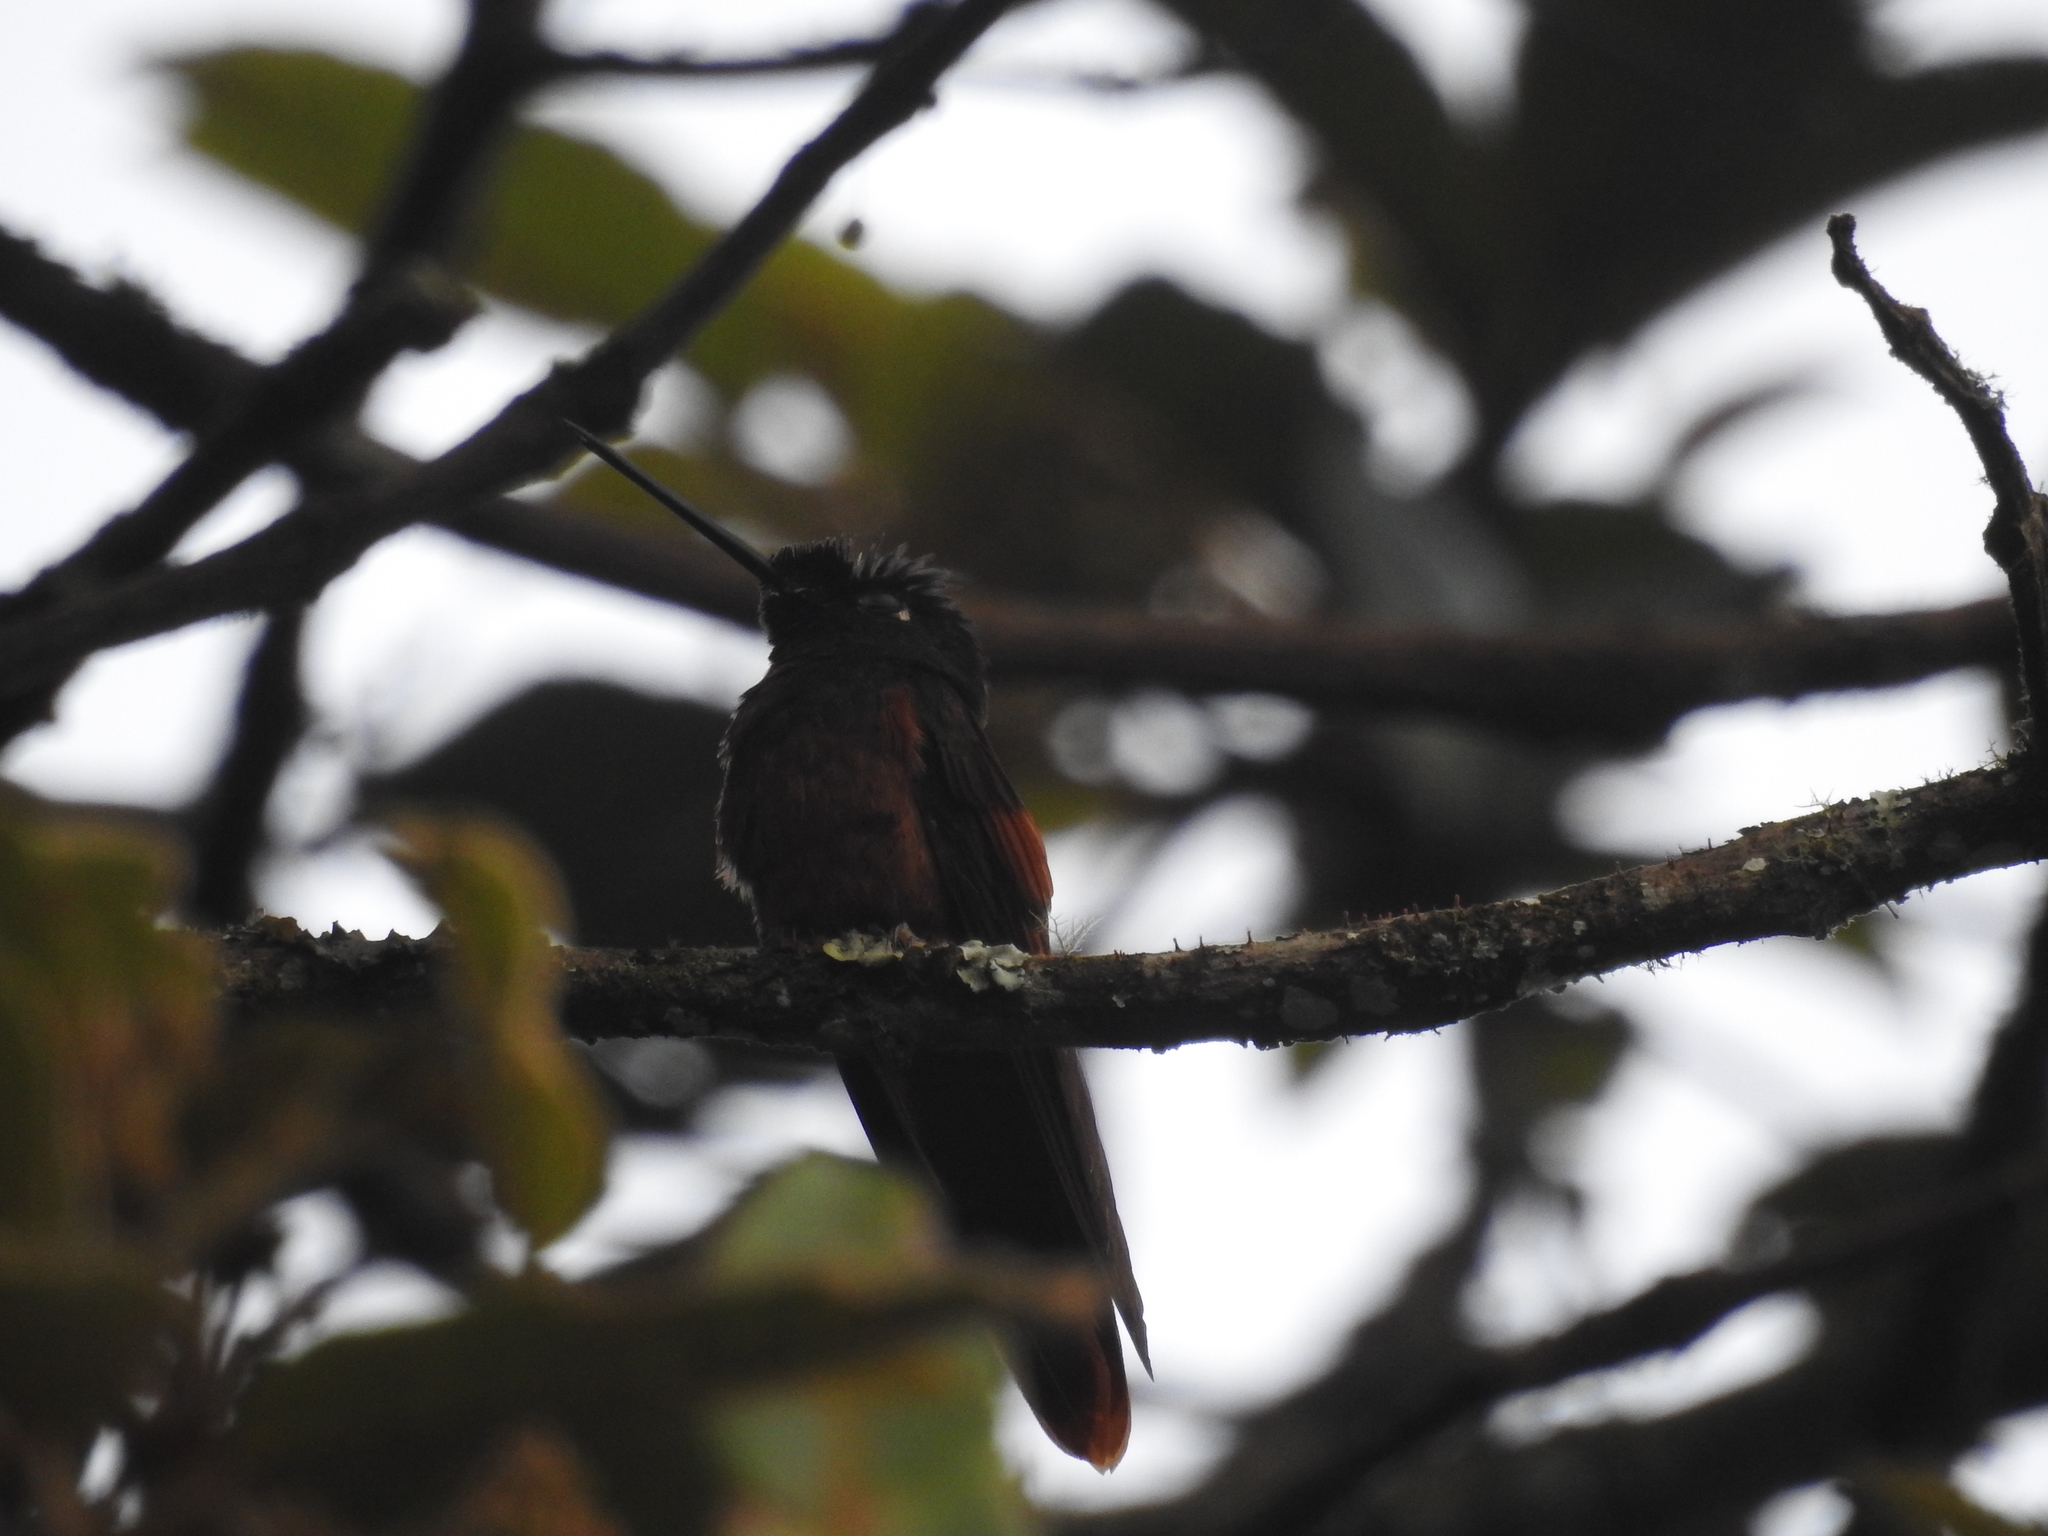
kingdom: Animalia
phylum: Chordata
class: Aves
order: Apodiformes
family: Trochilidae
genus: Coeligena
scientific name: Coeligena iris
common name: Rainbow starfrontlet
